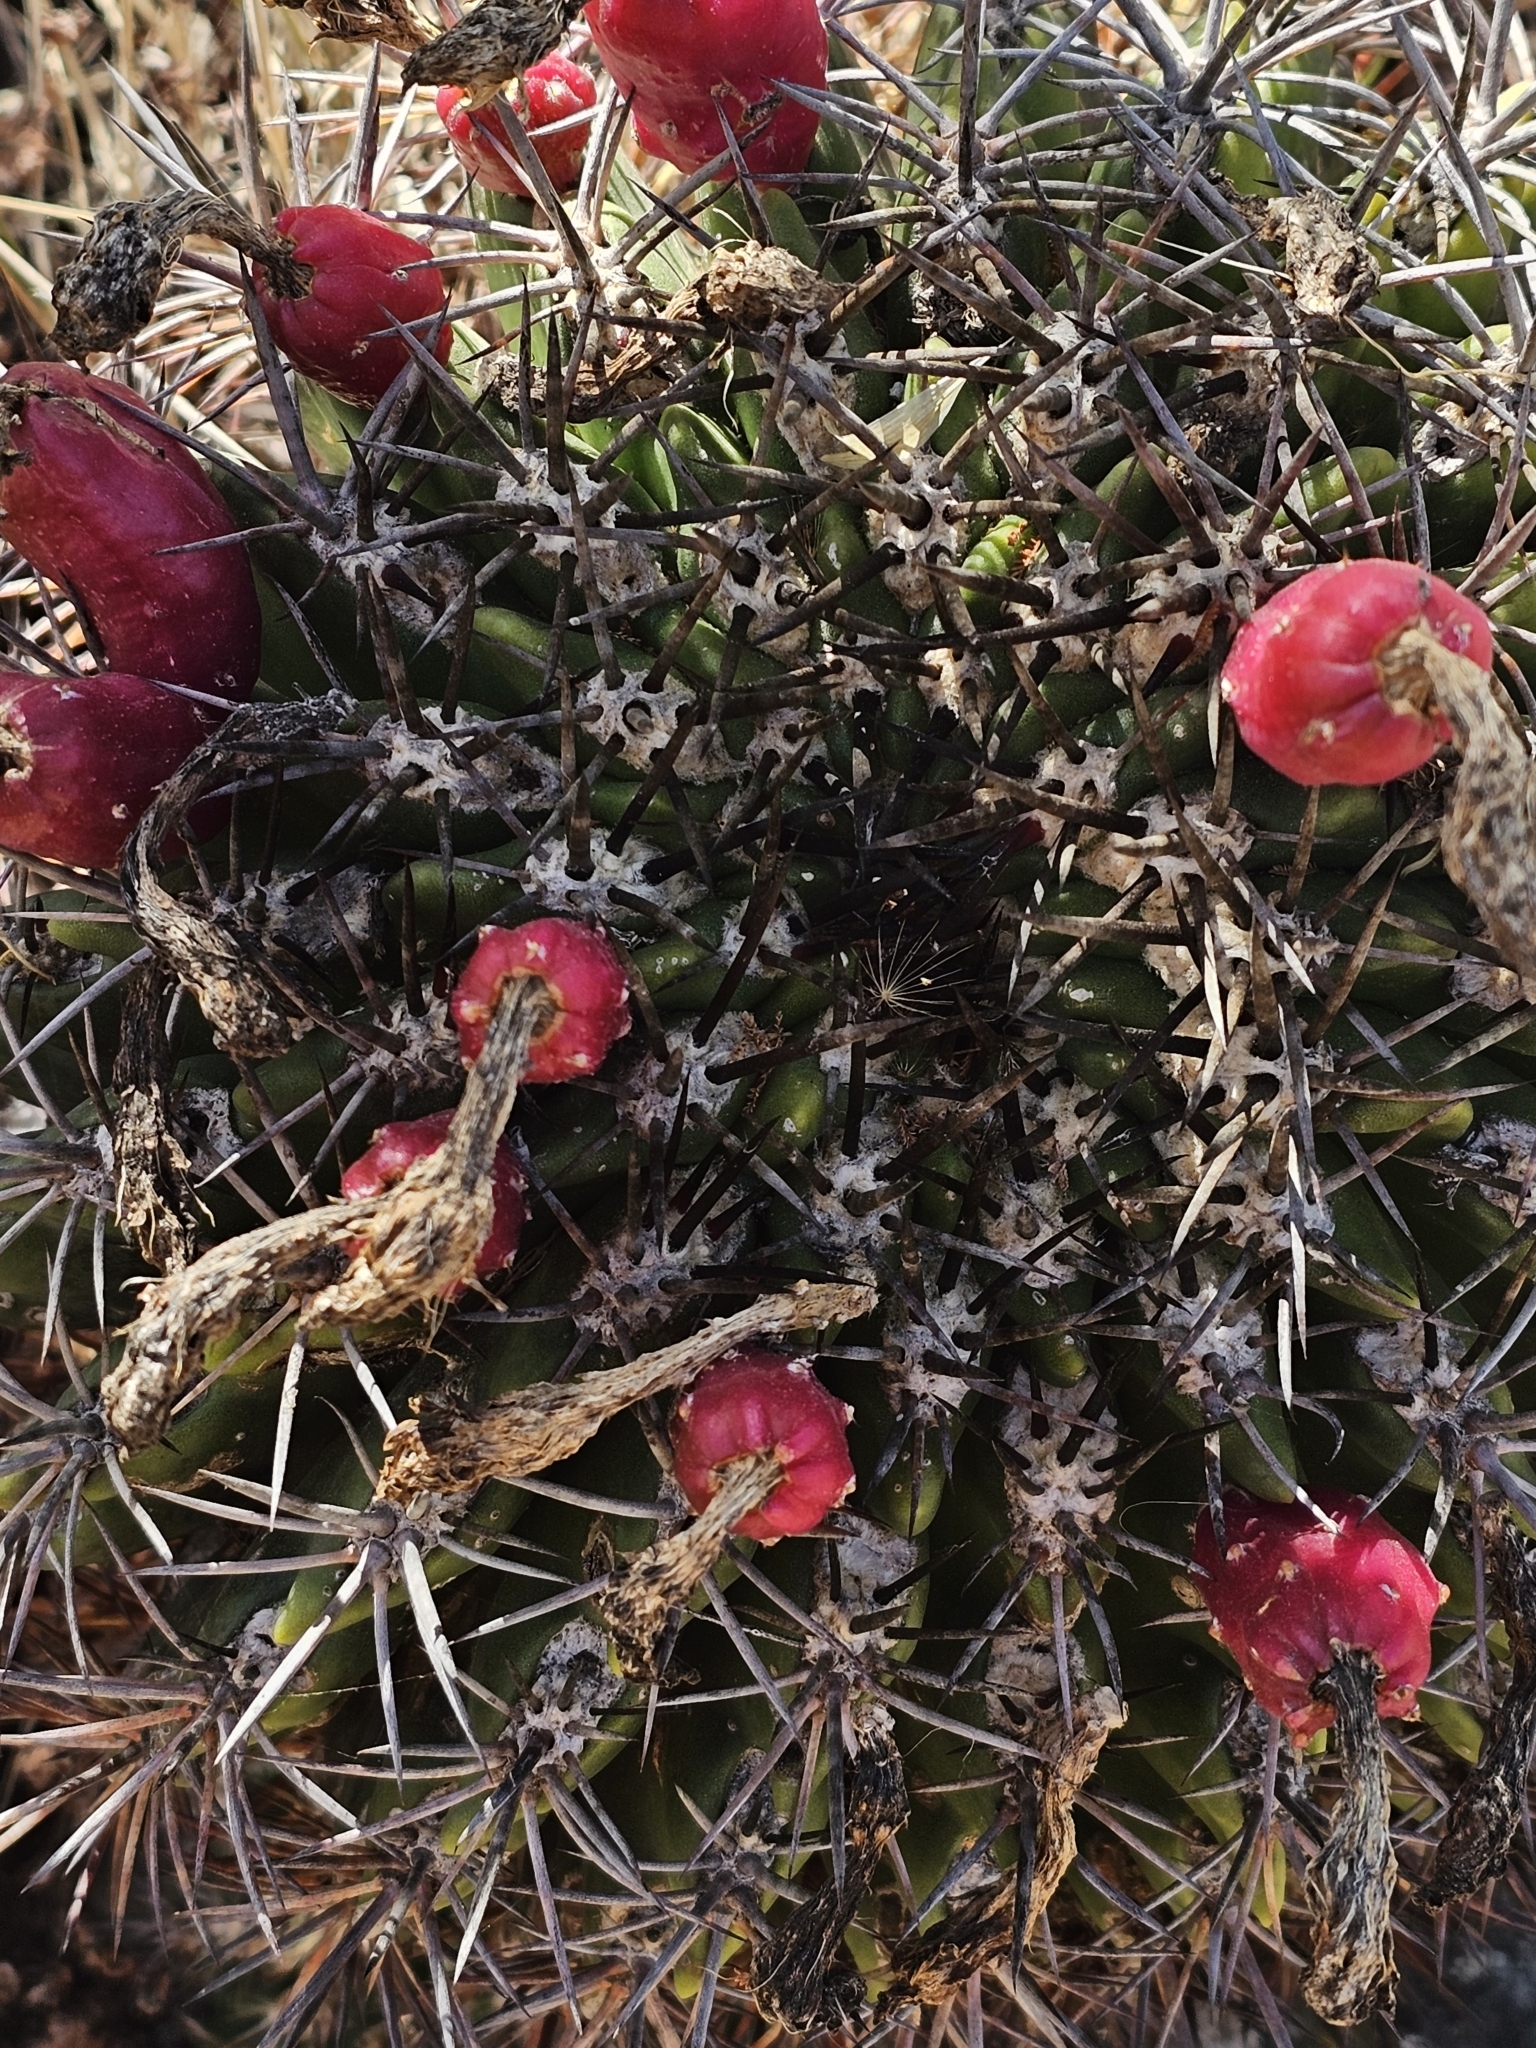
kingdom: Plantae
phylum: Tracheophyta
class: Magnoliopsida
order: Caryophyllales
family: Cactaceae
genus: Eriosyce
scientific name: Eriosyce castanea
